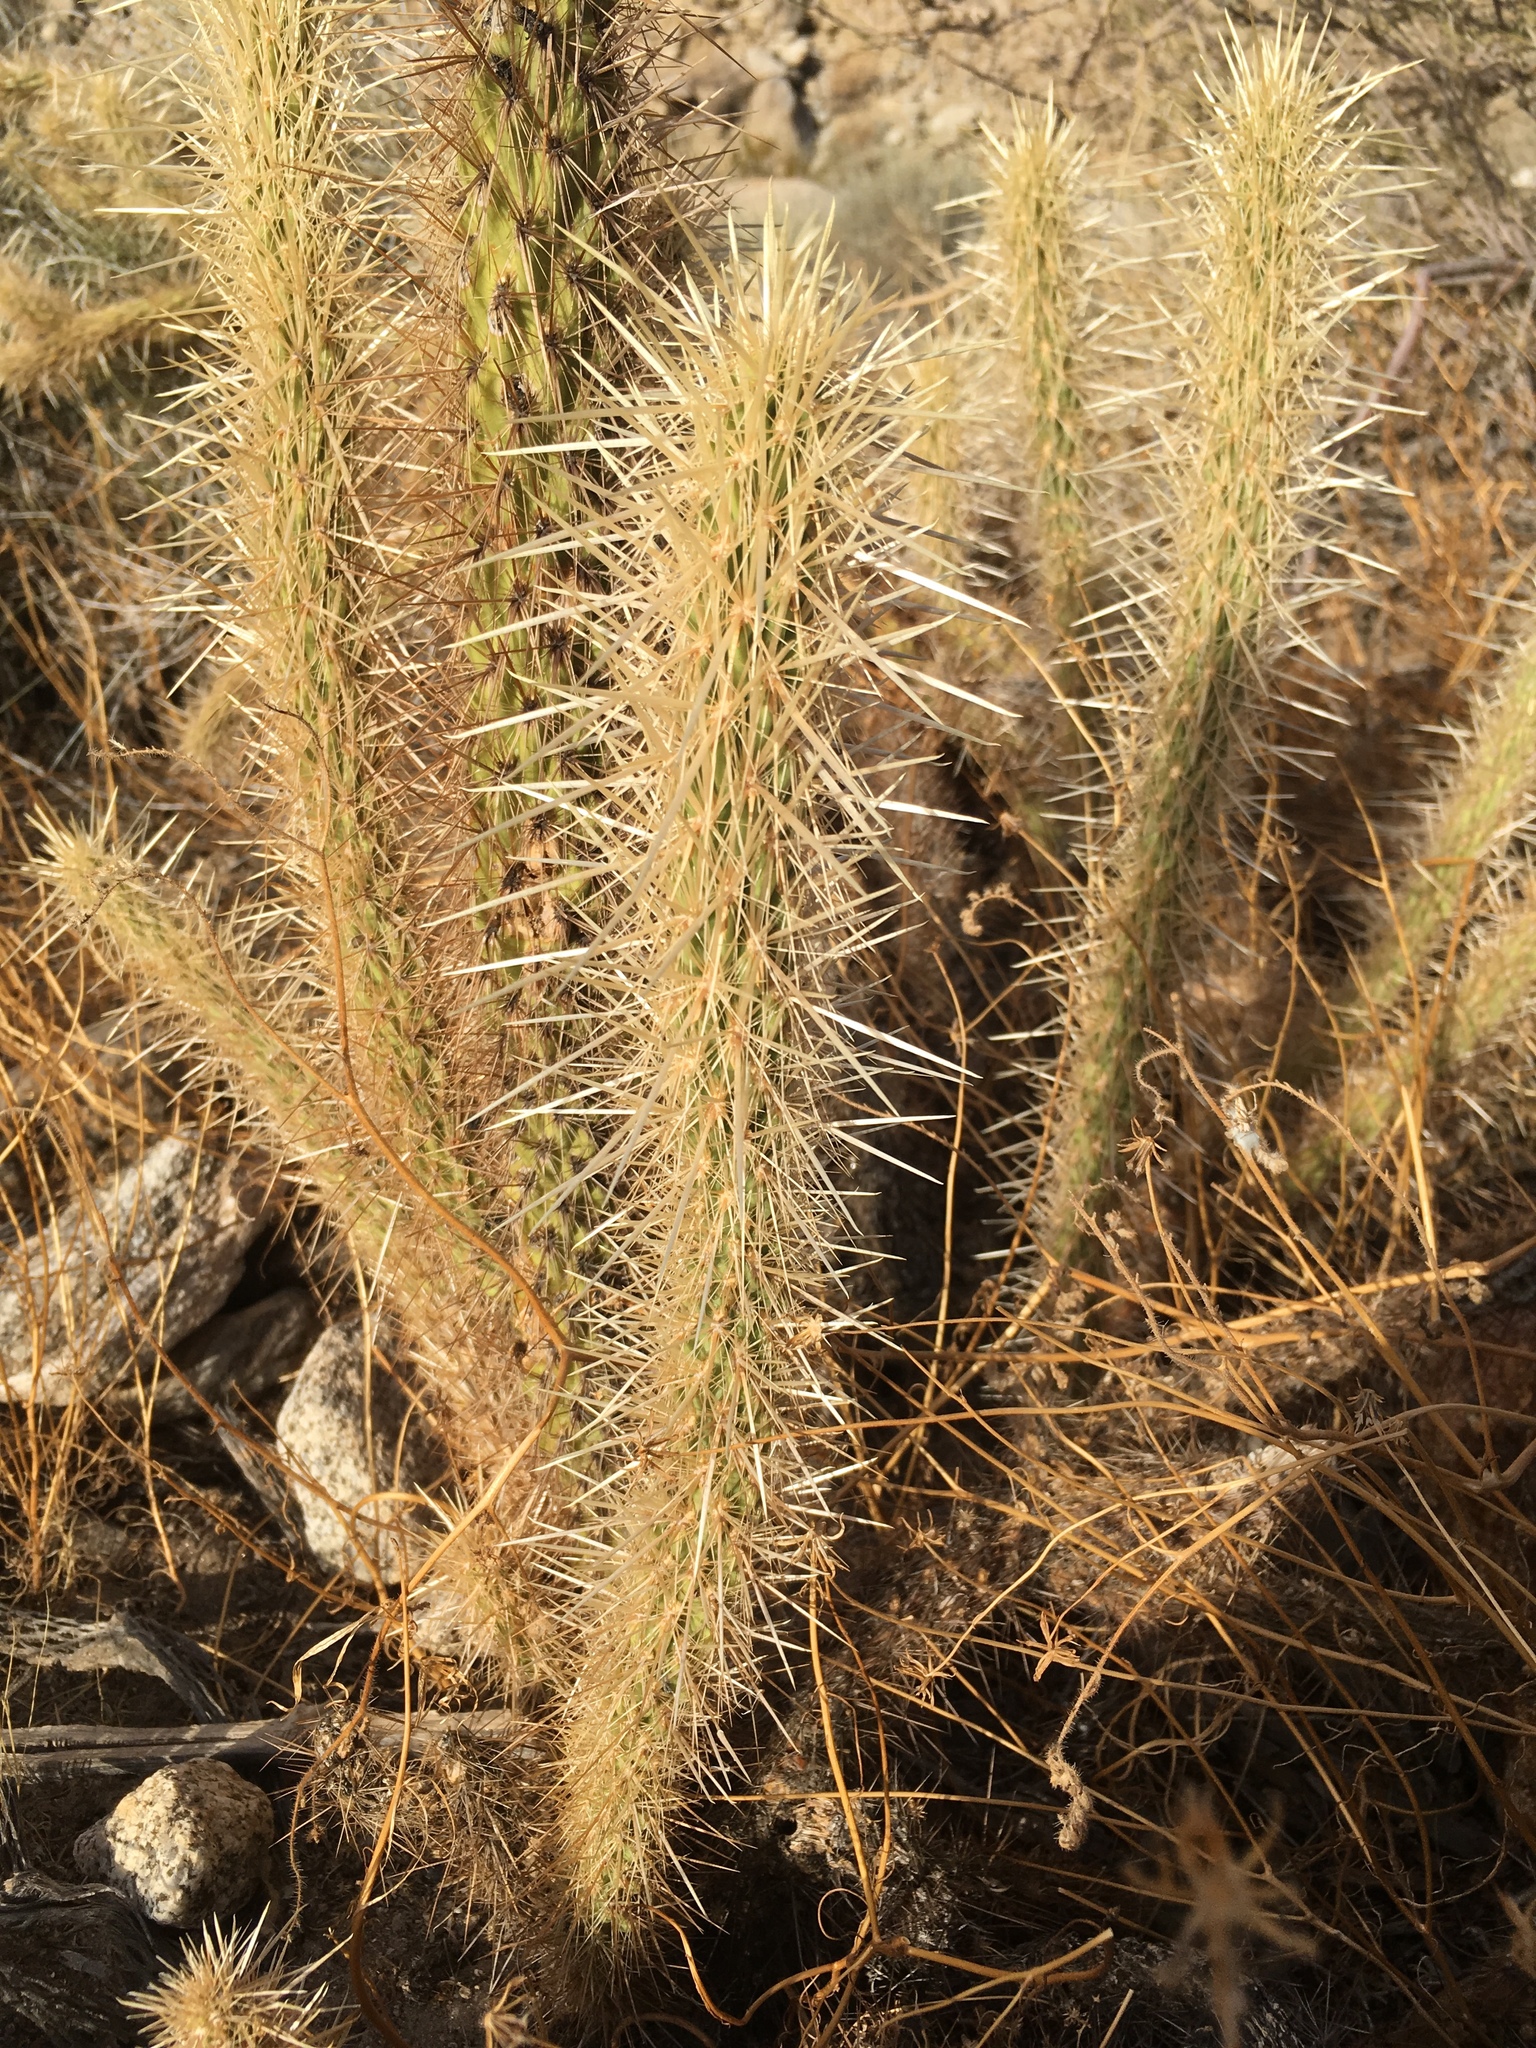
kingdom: Plantae
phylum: Tracheophyta
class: Magnoliopsida
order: Caryophyllales
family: Cactaceae
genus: Cylindropuntia
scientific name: Cylindropuntia ganderi
